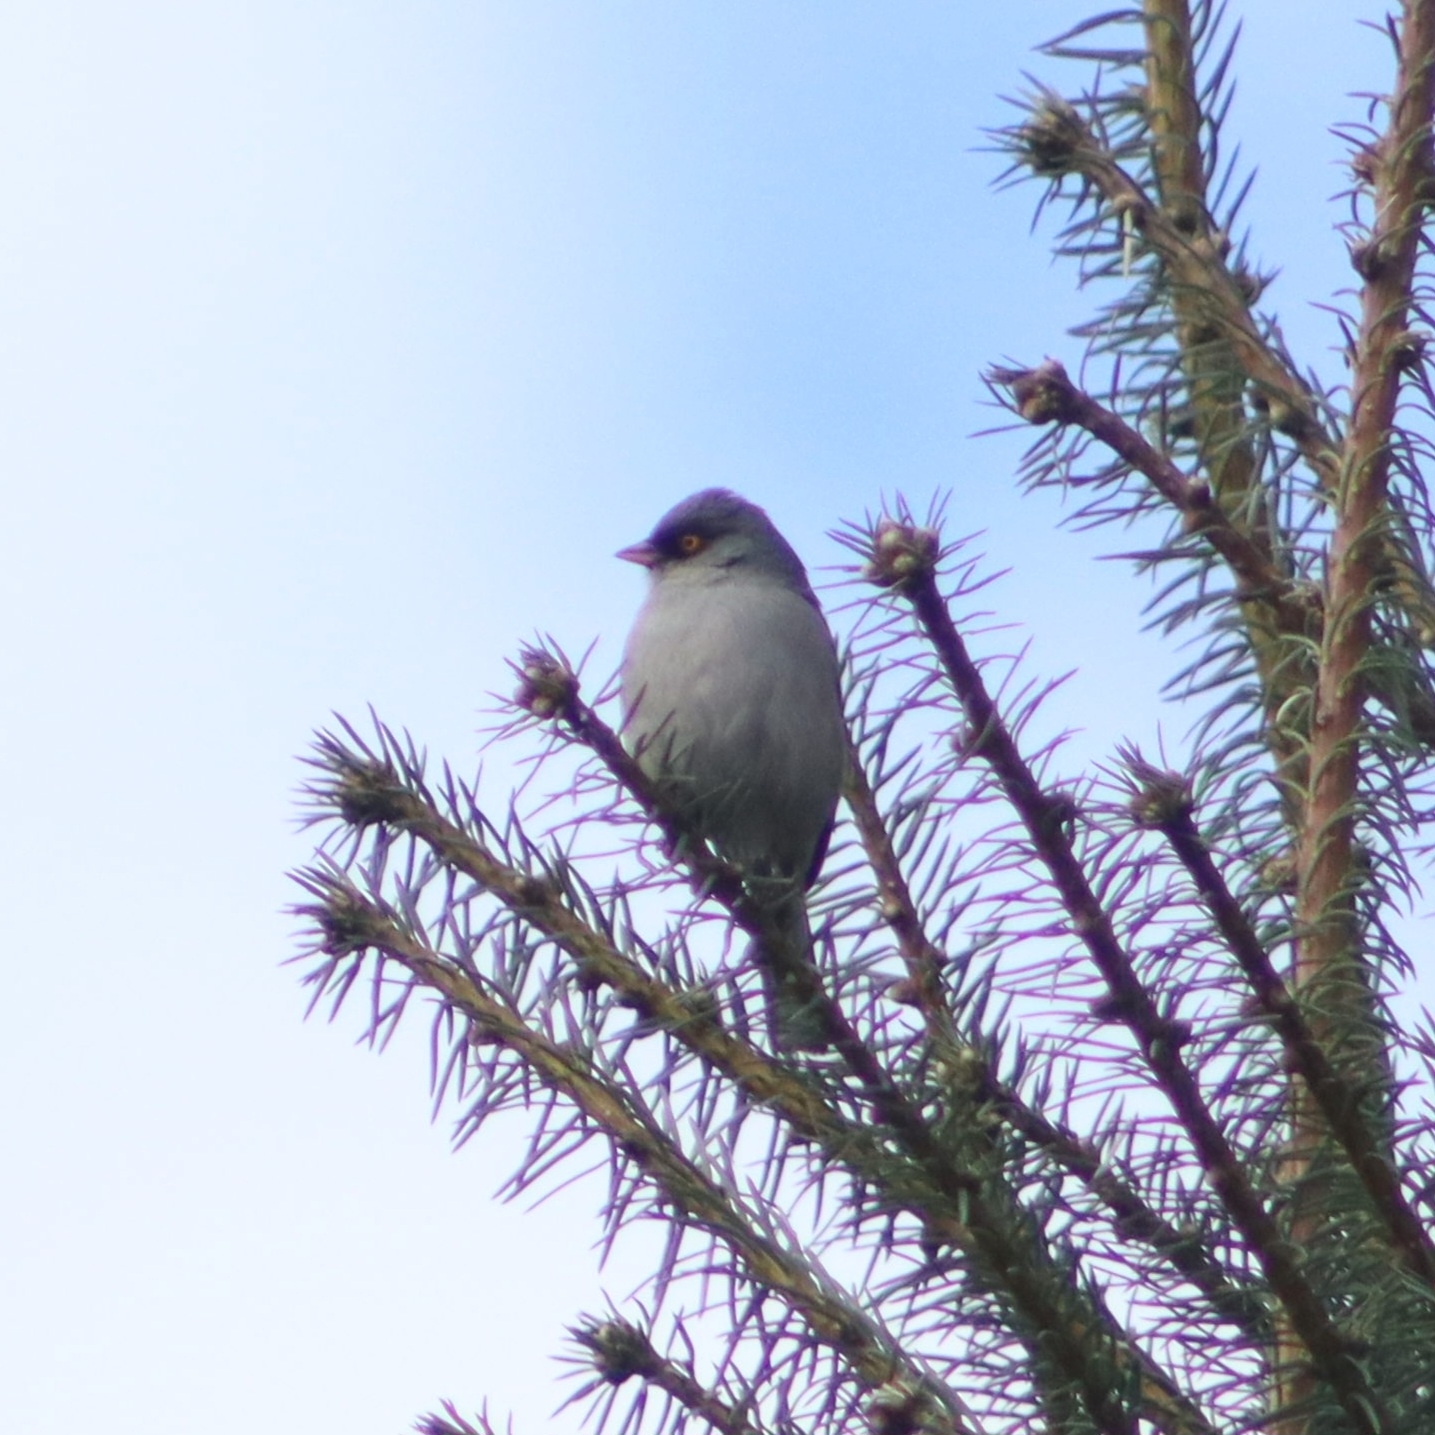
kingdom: Animalia
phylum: Chordata
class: Aves
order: Passeriformes
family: Passerellidae
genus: Junco
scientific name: Junco phaeonotus
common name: Yellow-eyed junco
